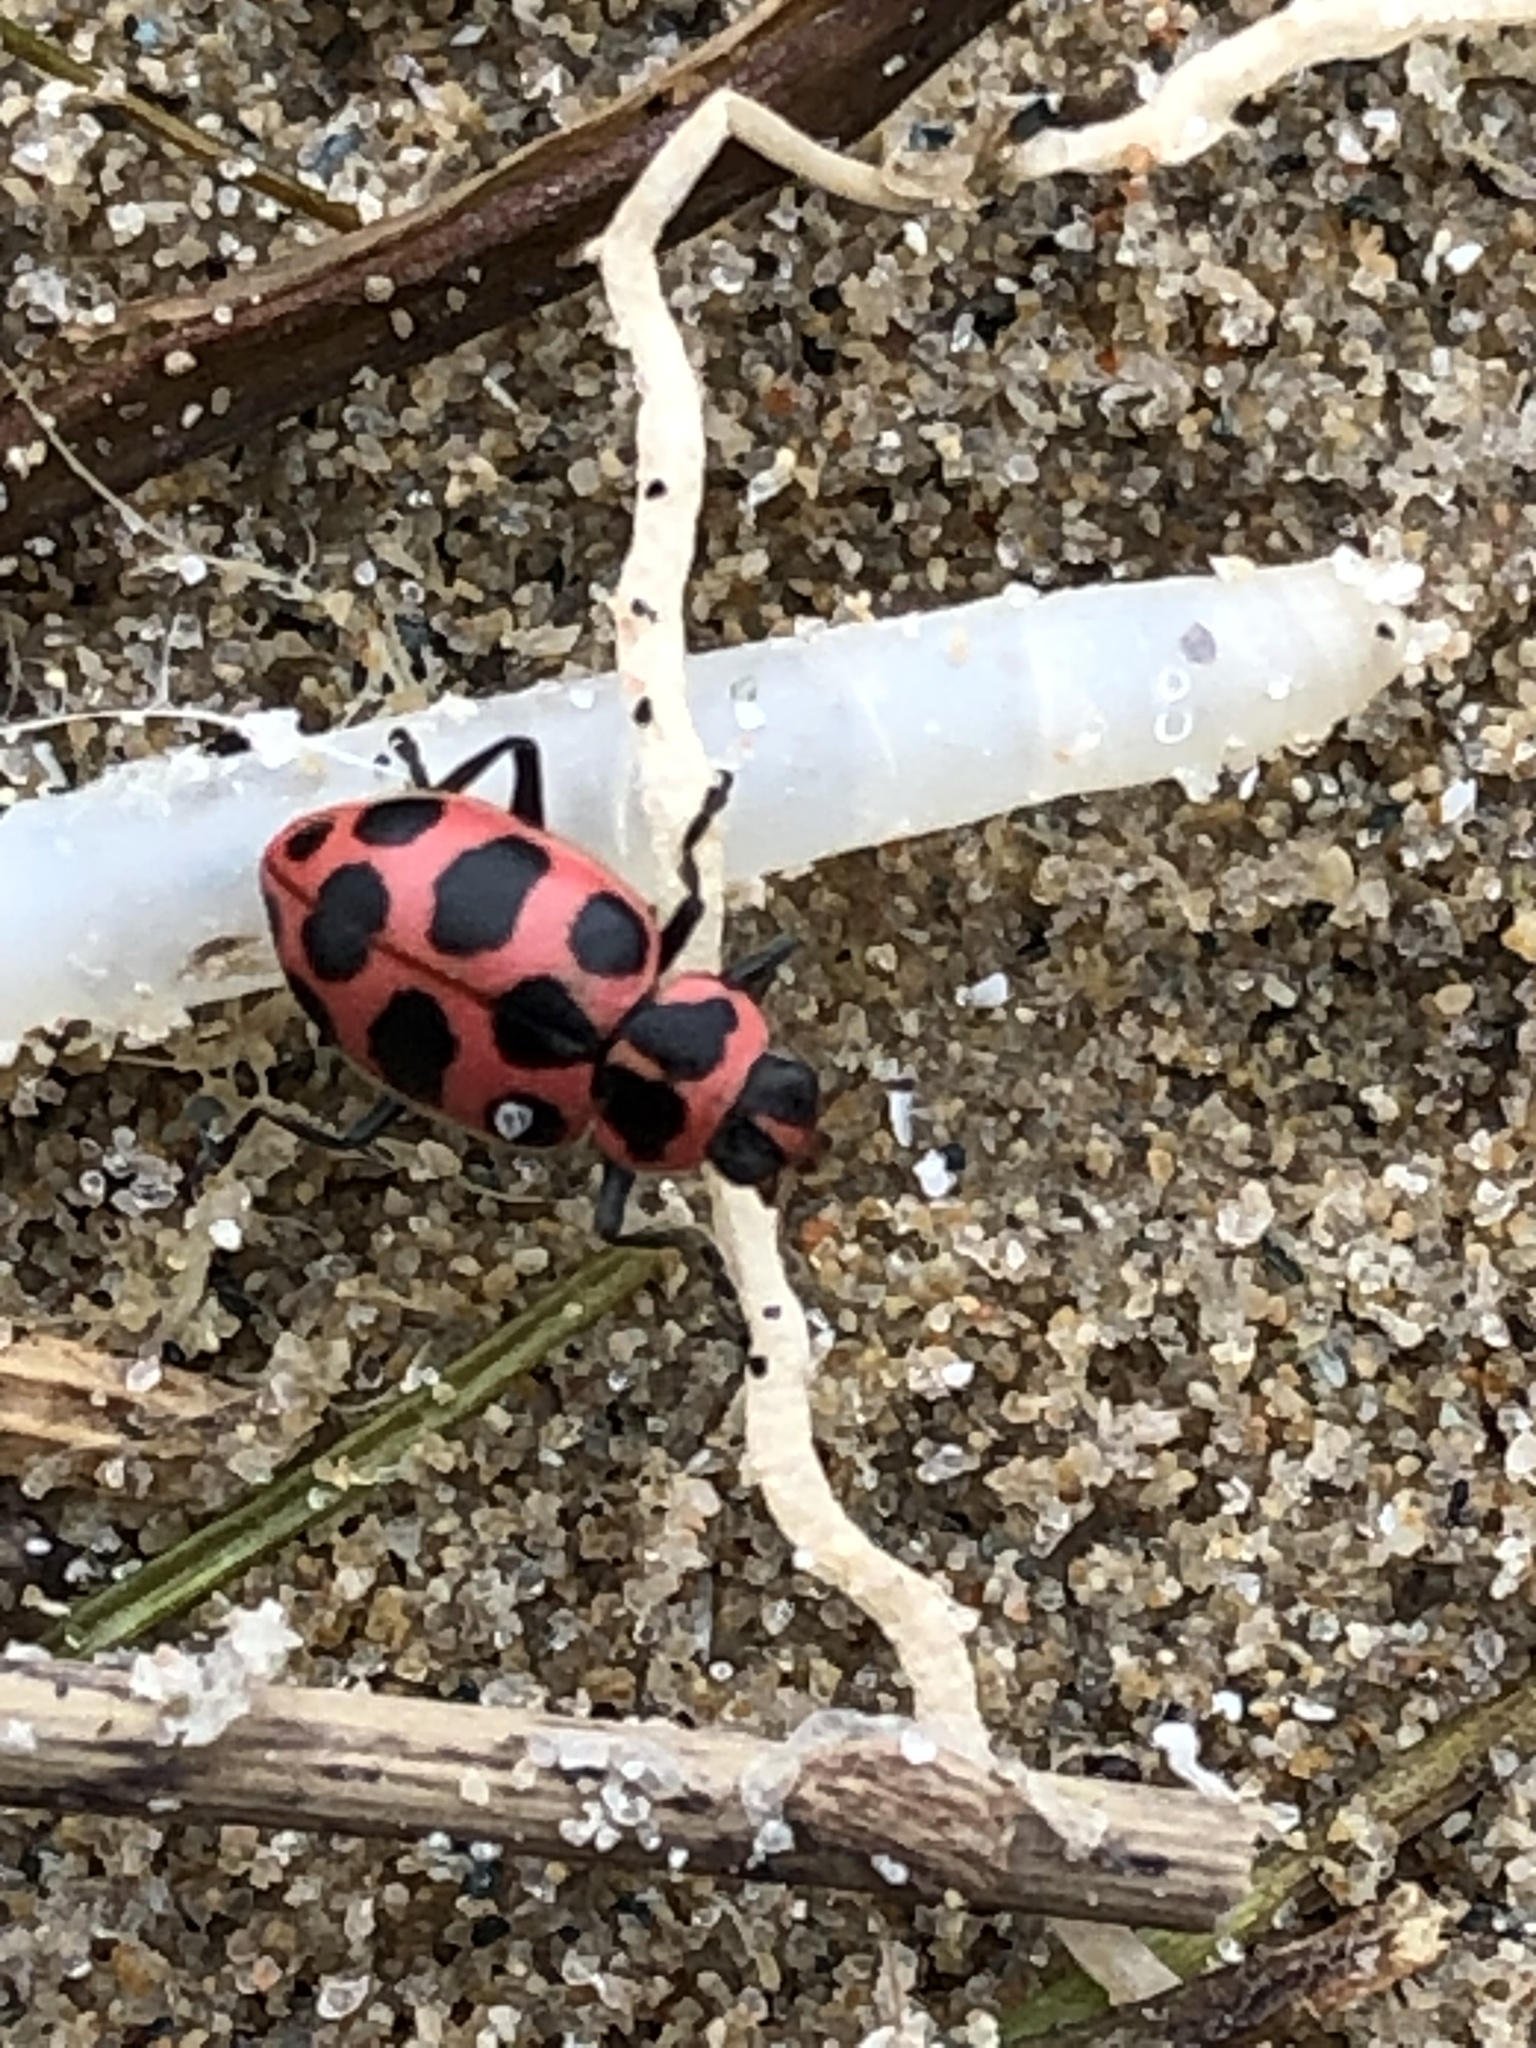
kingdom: Animalia
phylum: Arthropoda
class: Insecta
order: Coleoptera
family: Coccinellidae
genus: Coleomegilla
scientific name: Coleomegilla maculata
